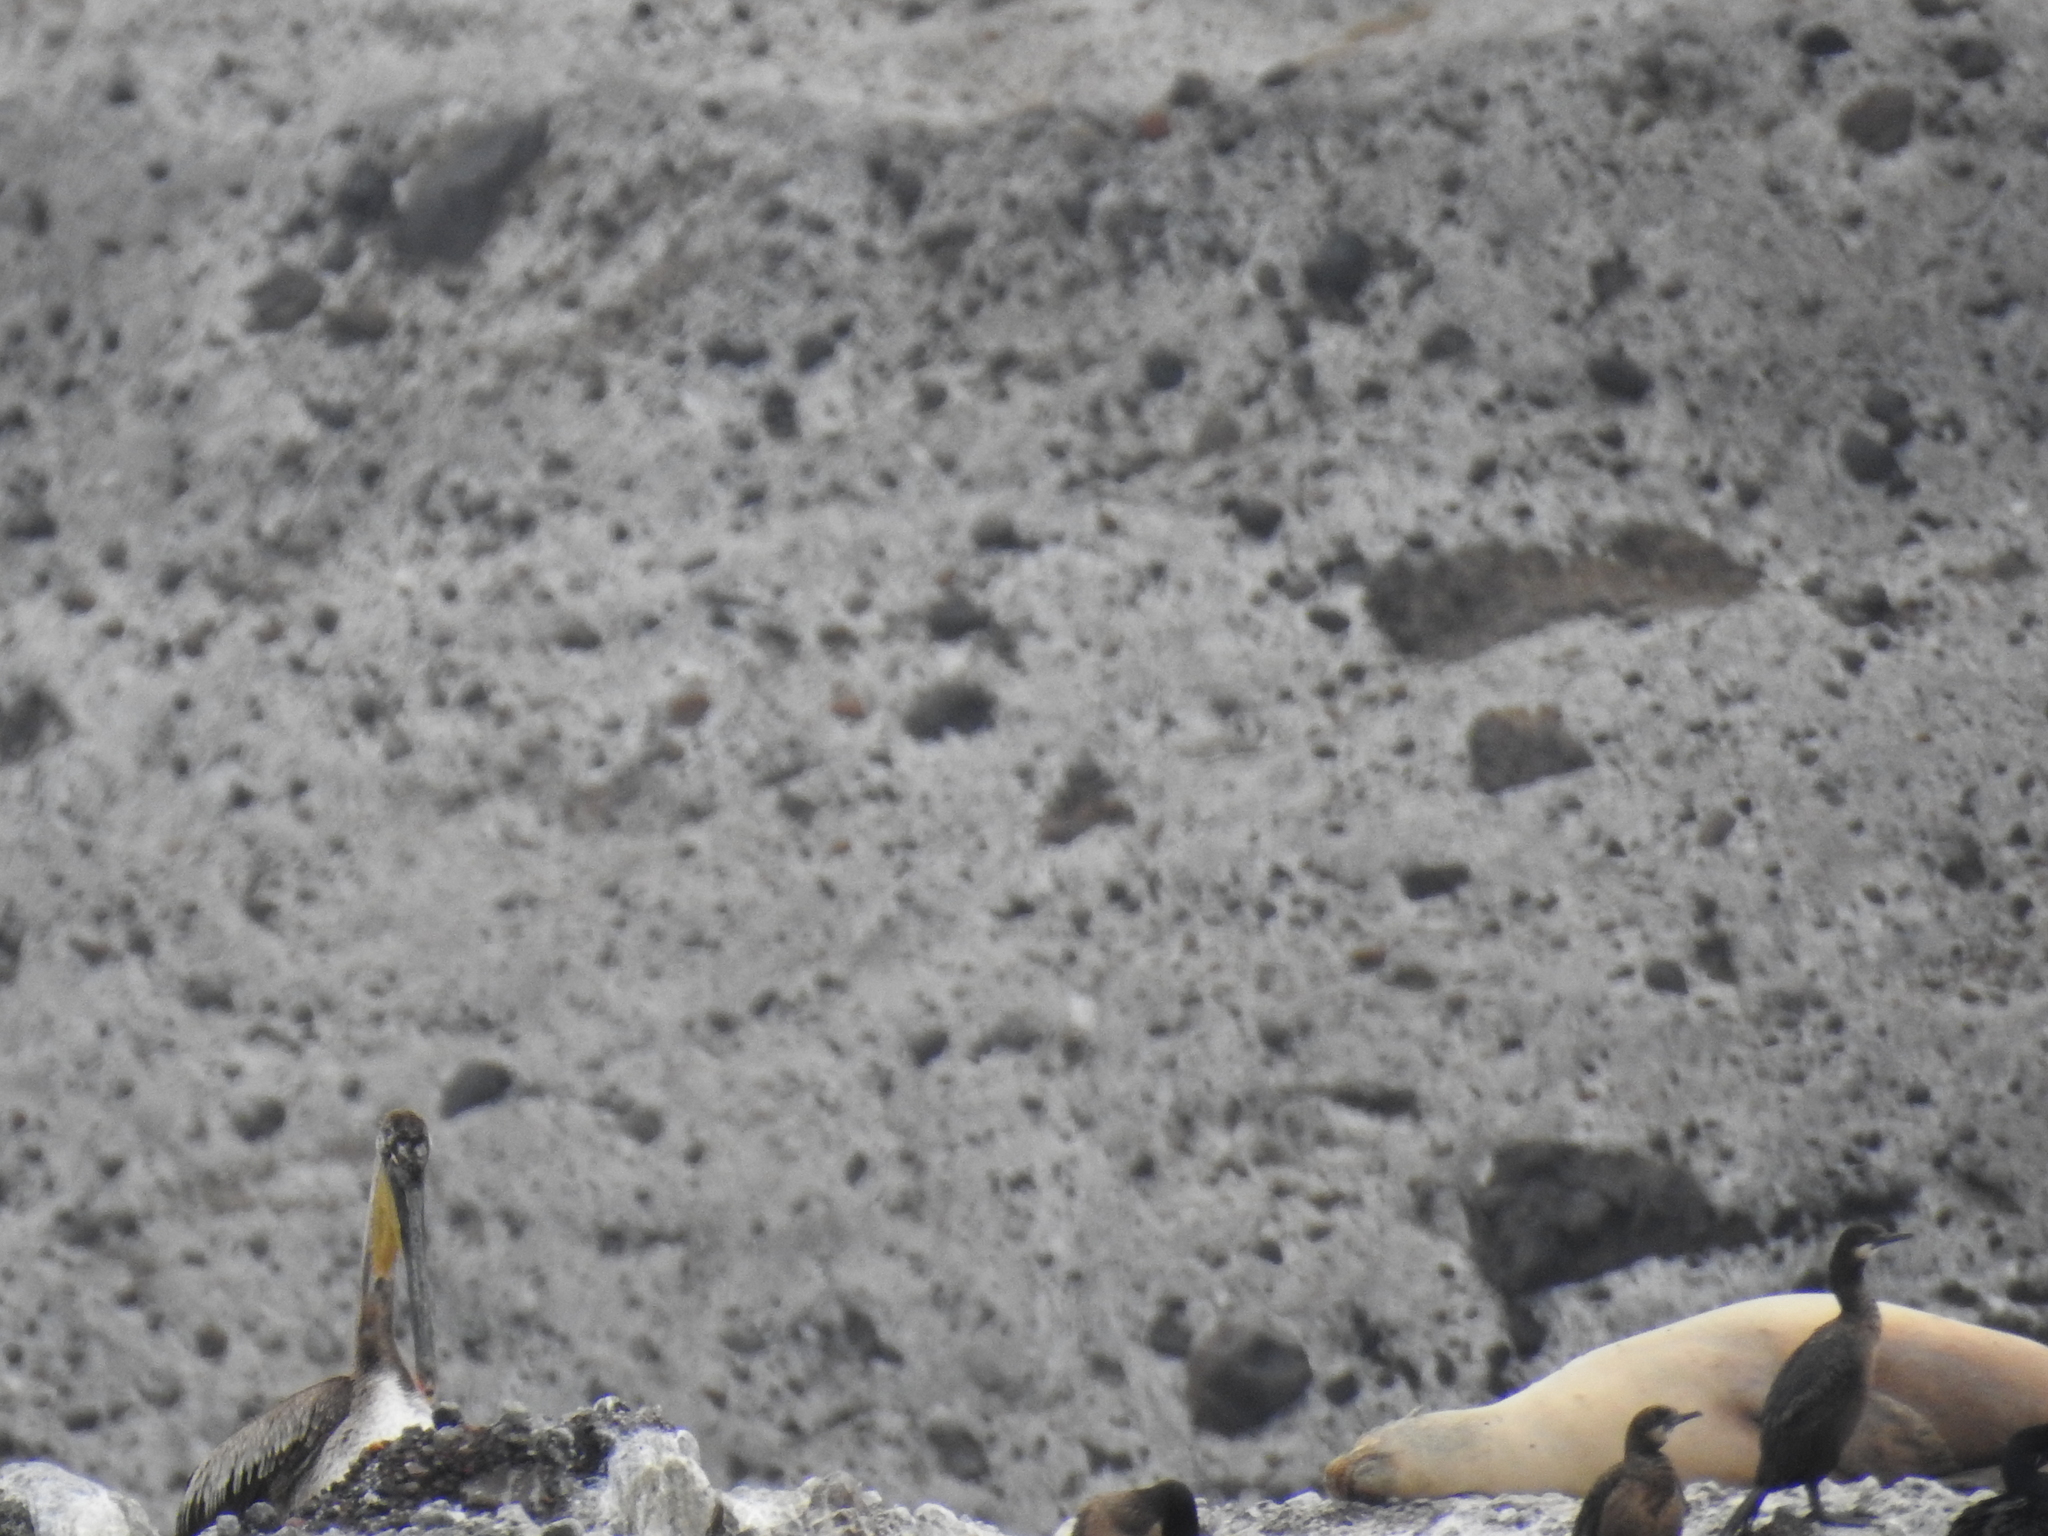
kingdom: Animalia
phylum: Chordata
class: Mammalia
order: Carnivora
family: Otariidae
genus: Zalophus
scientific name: Zalophus californianus
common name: California sea lion
